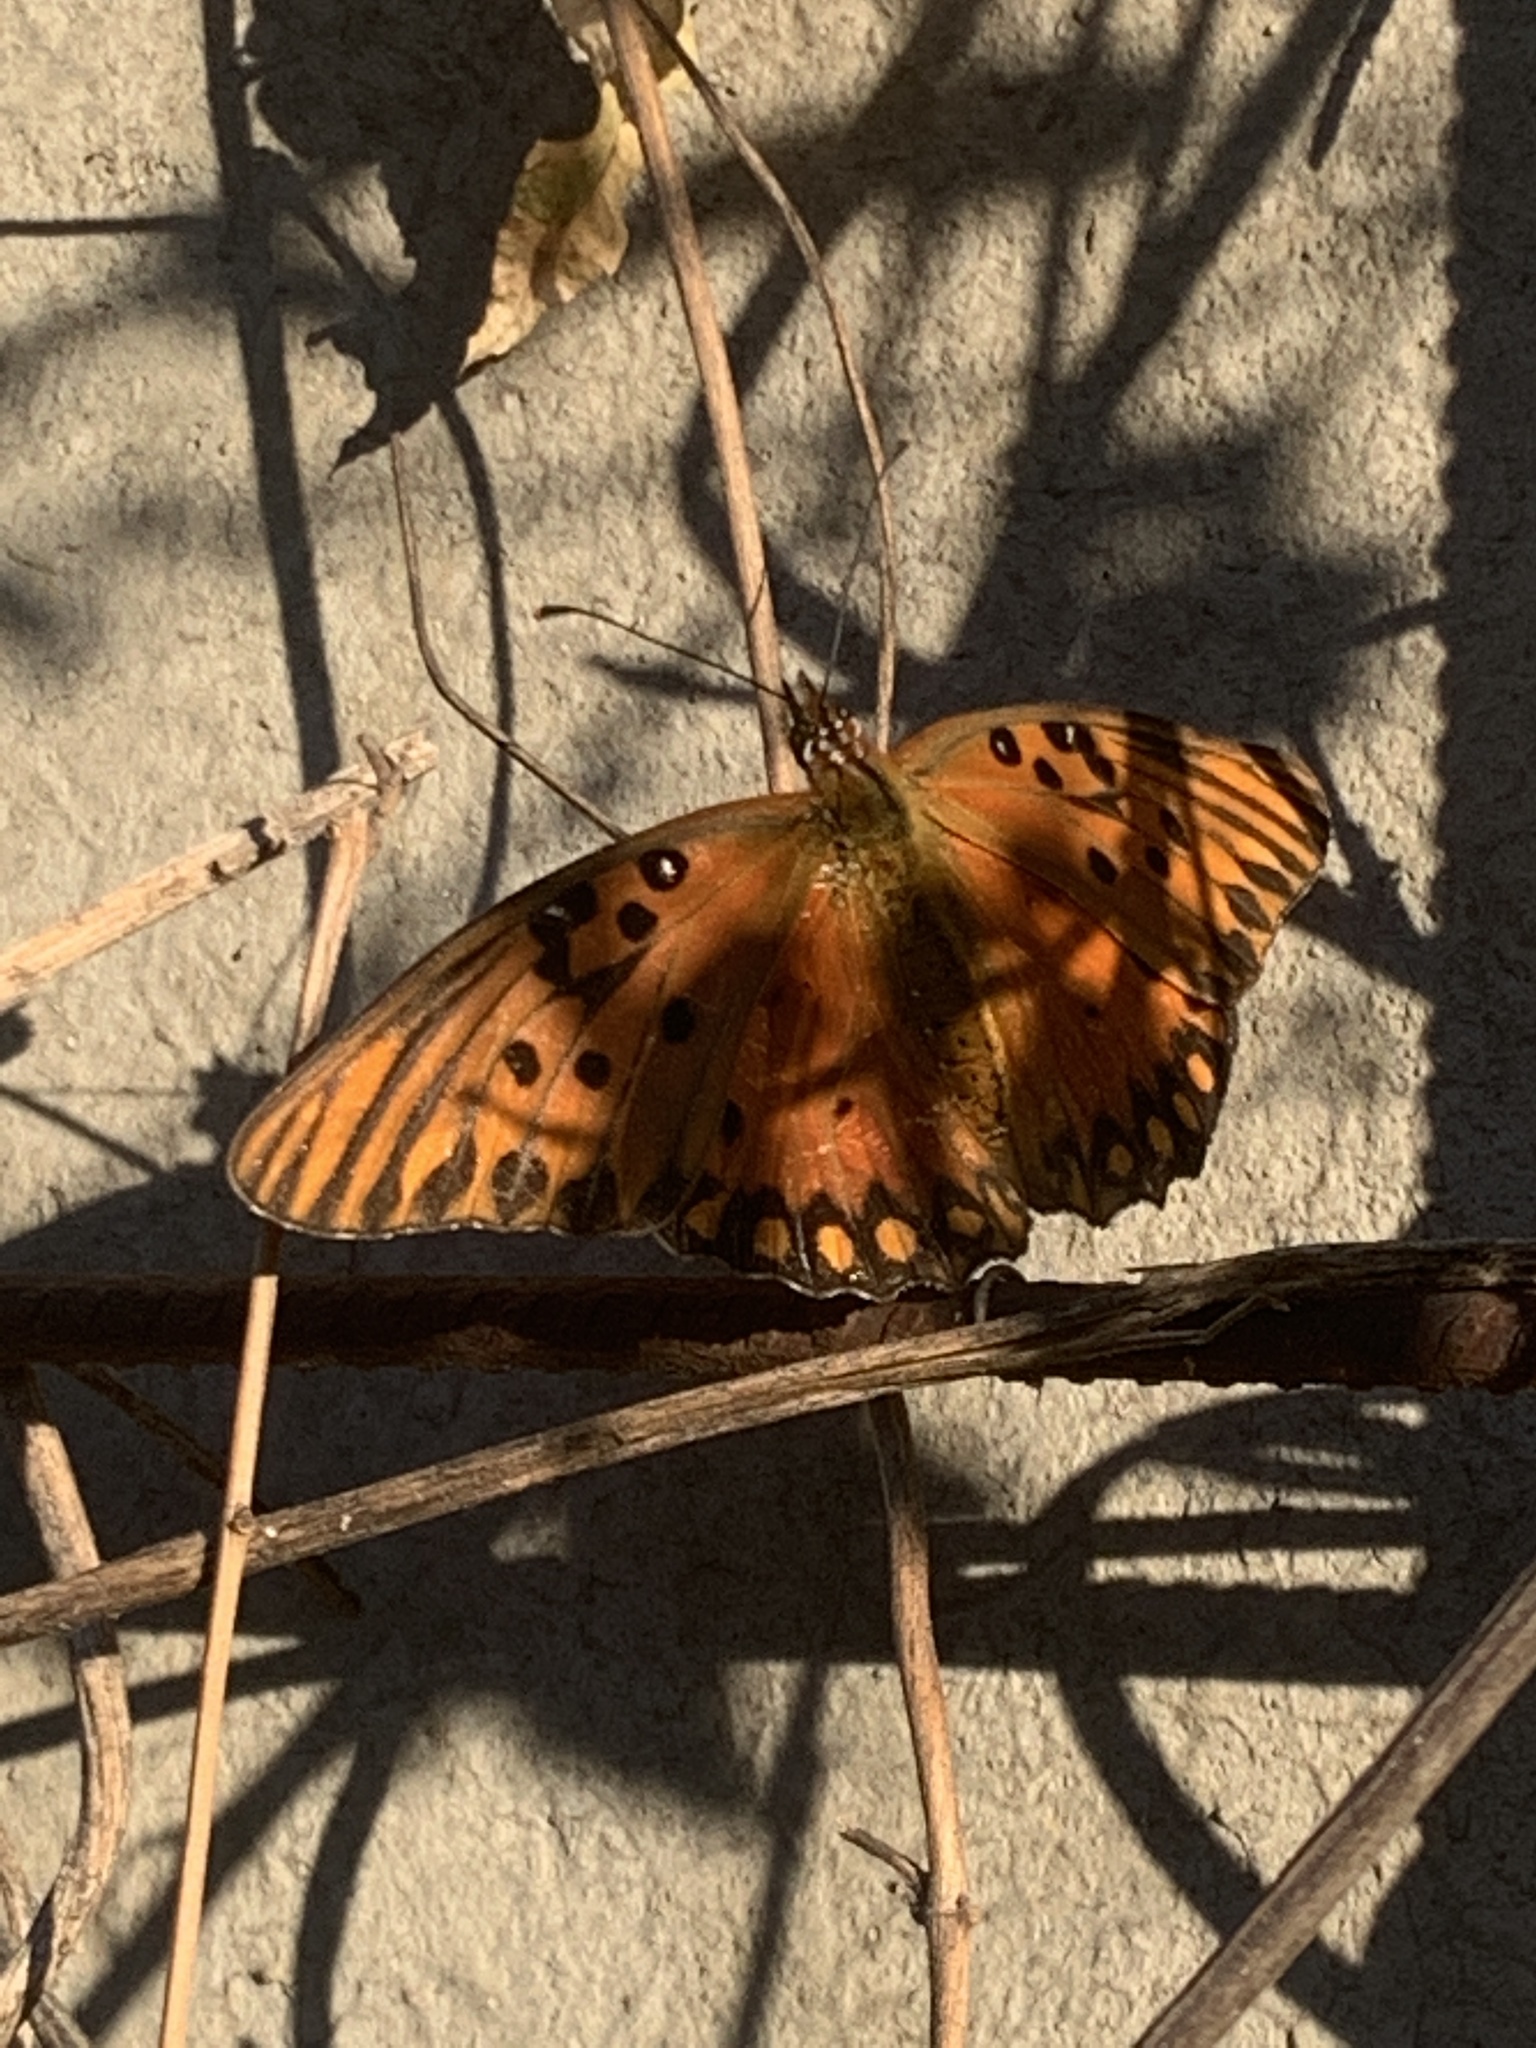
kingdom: Animalia
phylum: Arthropoda
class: Insecta
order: Lepidoptera
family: Nymphalidae
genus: Dione
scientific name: Dione vanillae
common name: Gulf fritillary
